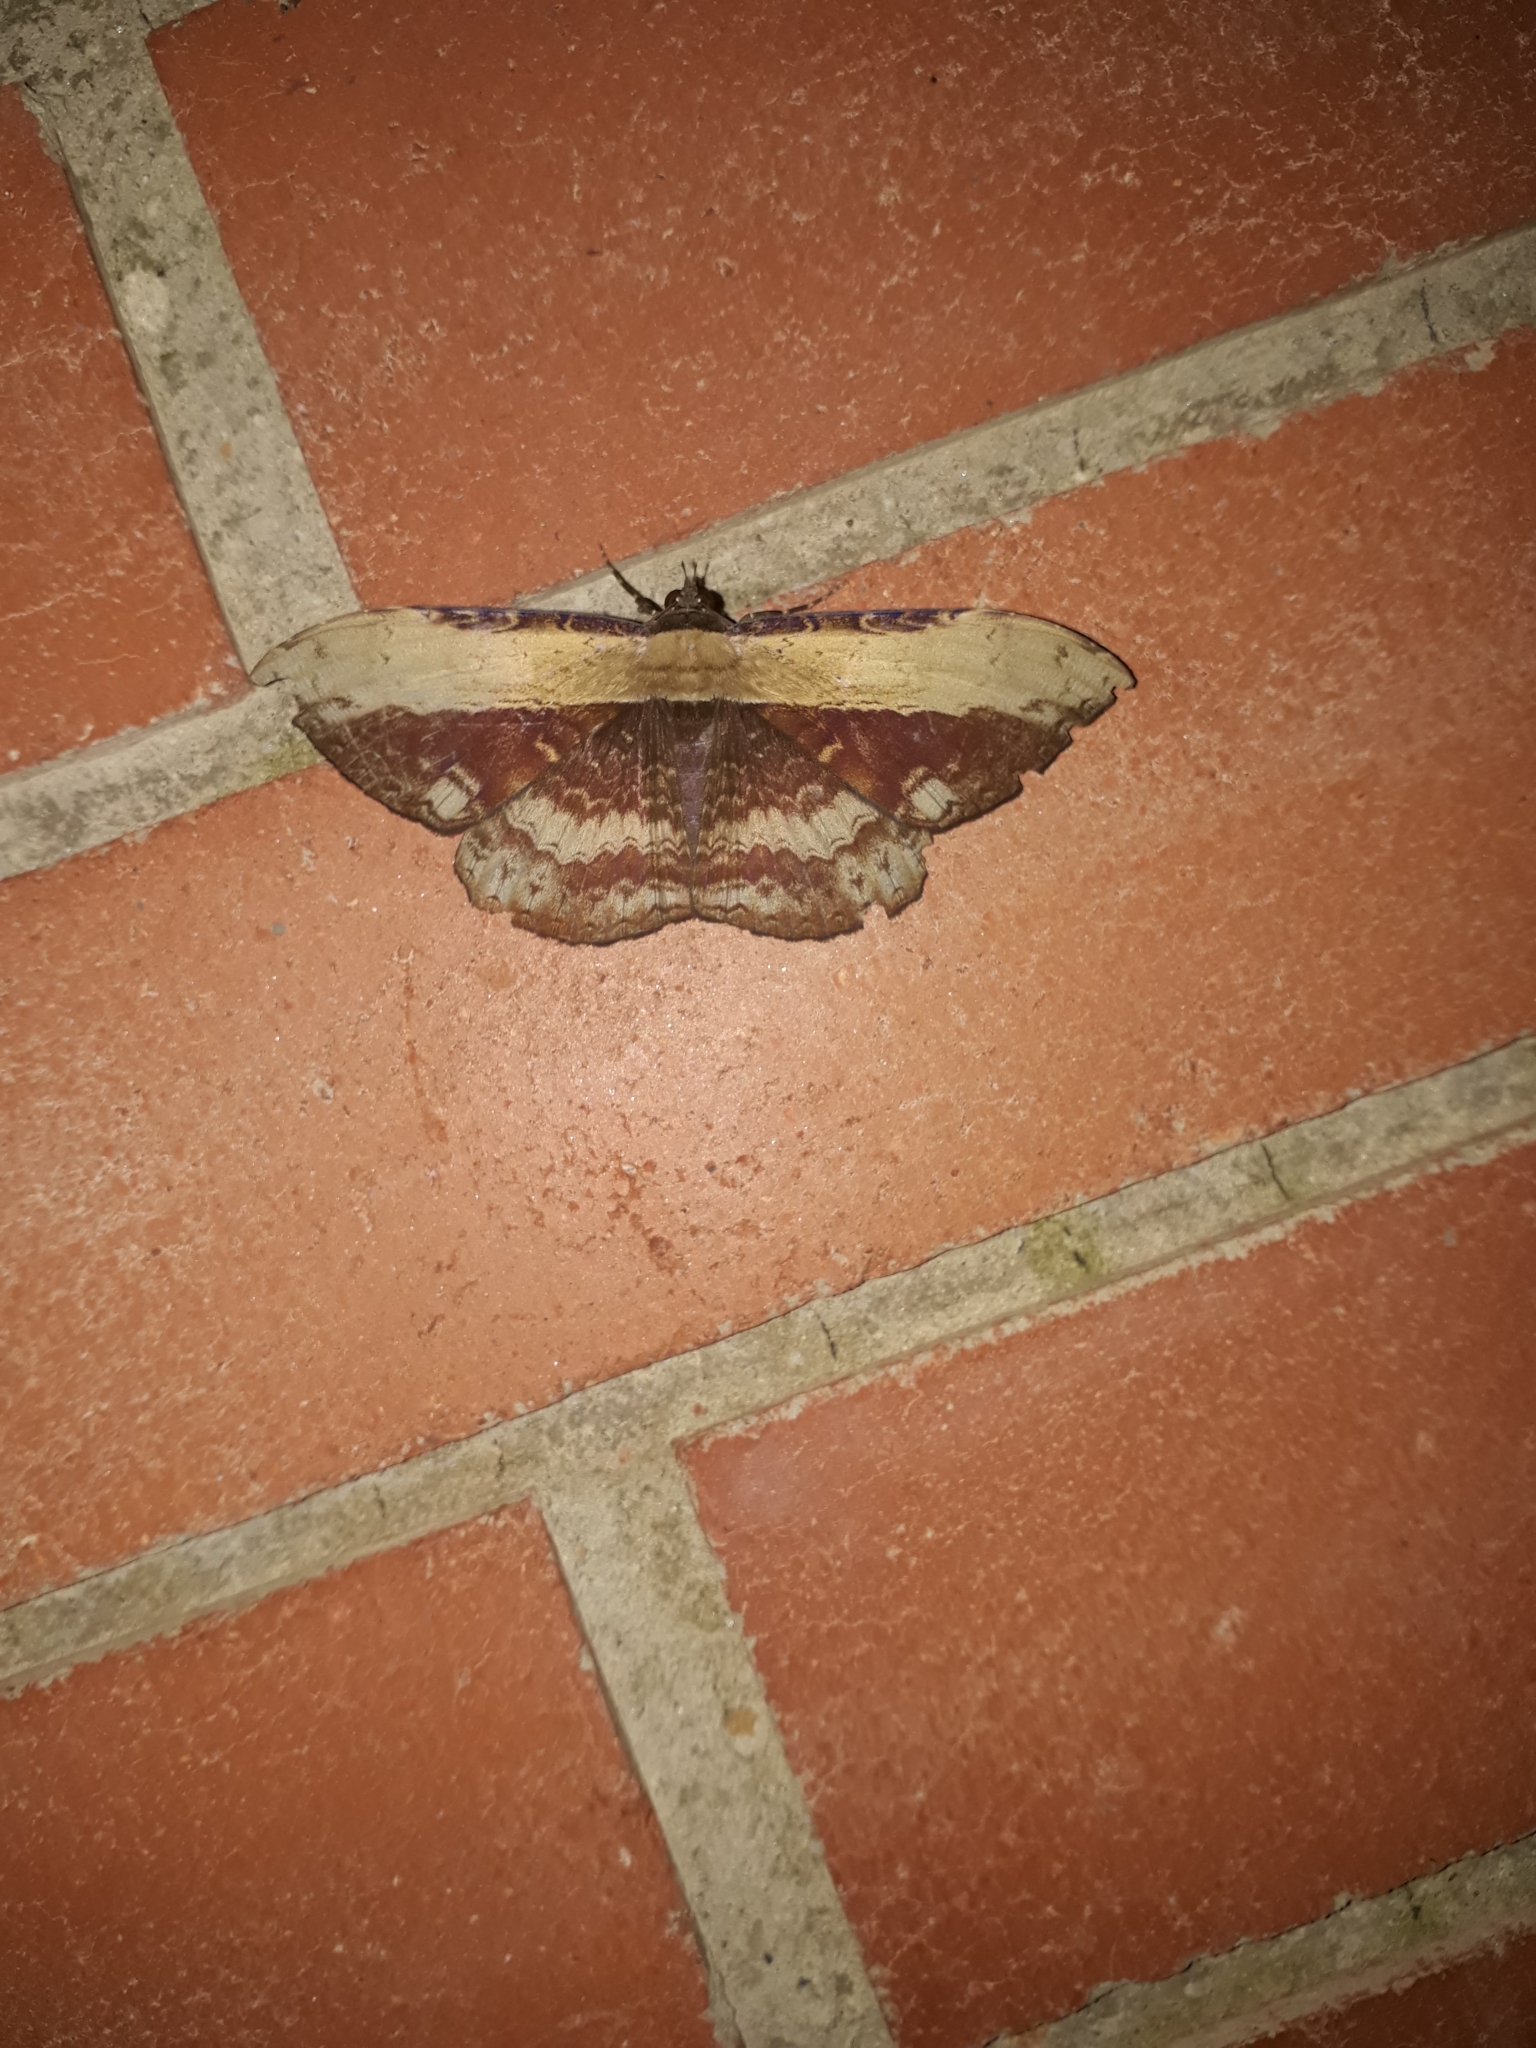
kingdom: Animalia
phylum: Arthropoda
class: Insecta
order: Lepidoptera
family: Erebidae
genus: Hemeroblemma
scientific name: Hemeroblemma stiva
